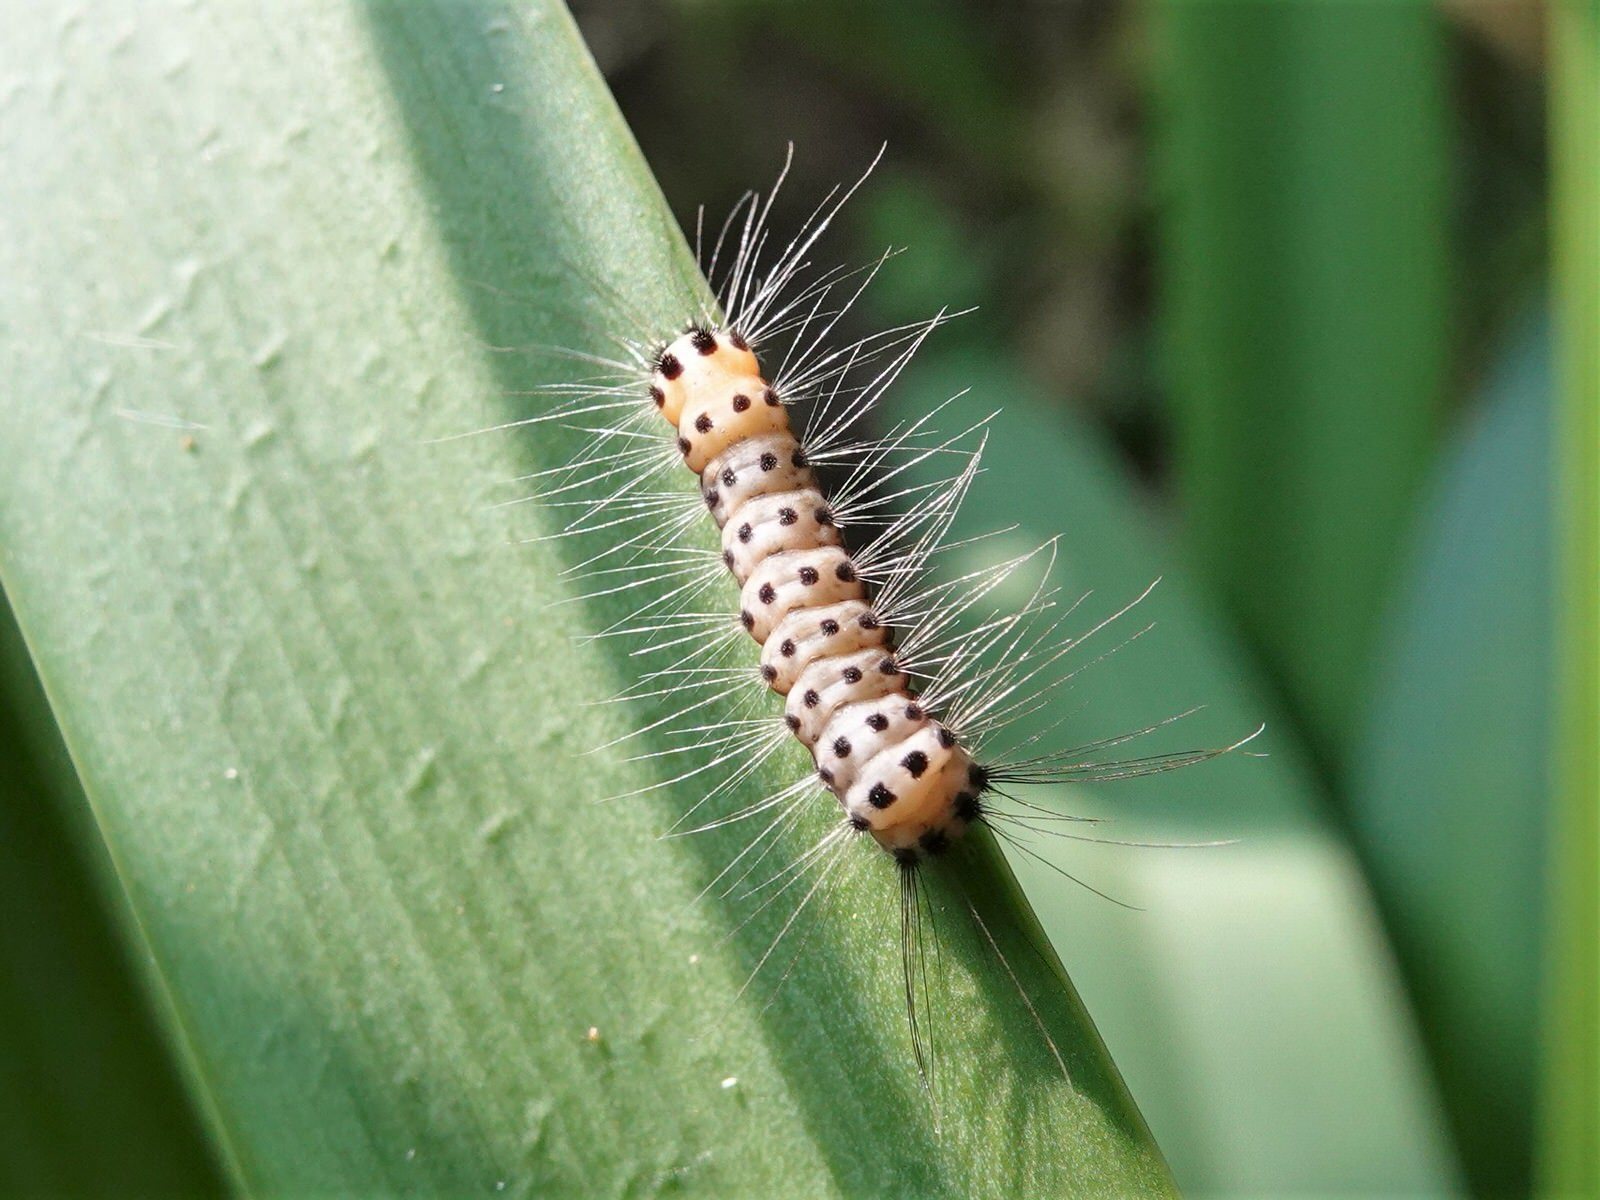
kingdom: Animalia
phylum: Arthropoda
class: Insecta
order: Lepidoptera
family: Zygaenidae
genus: Artona
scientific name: Artona martini
